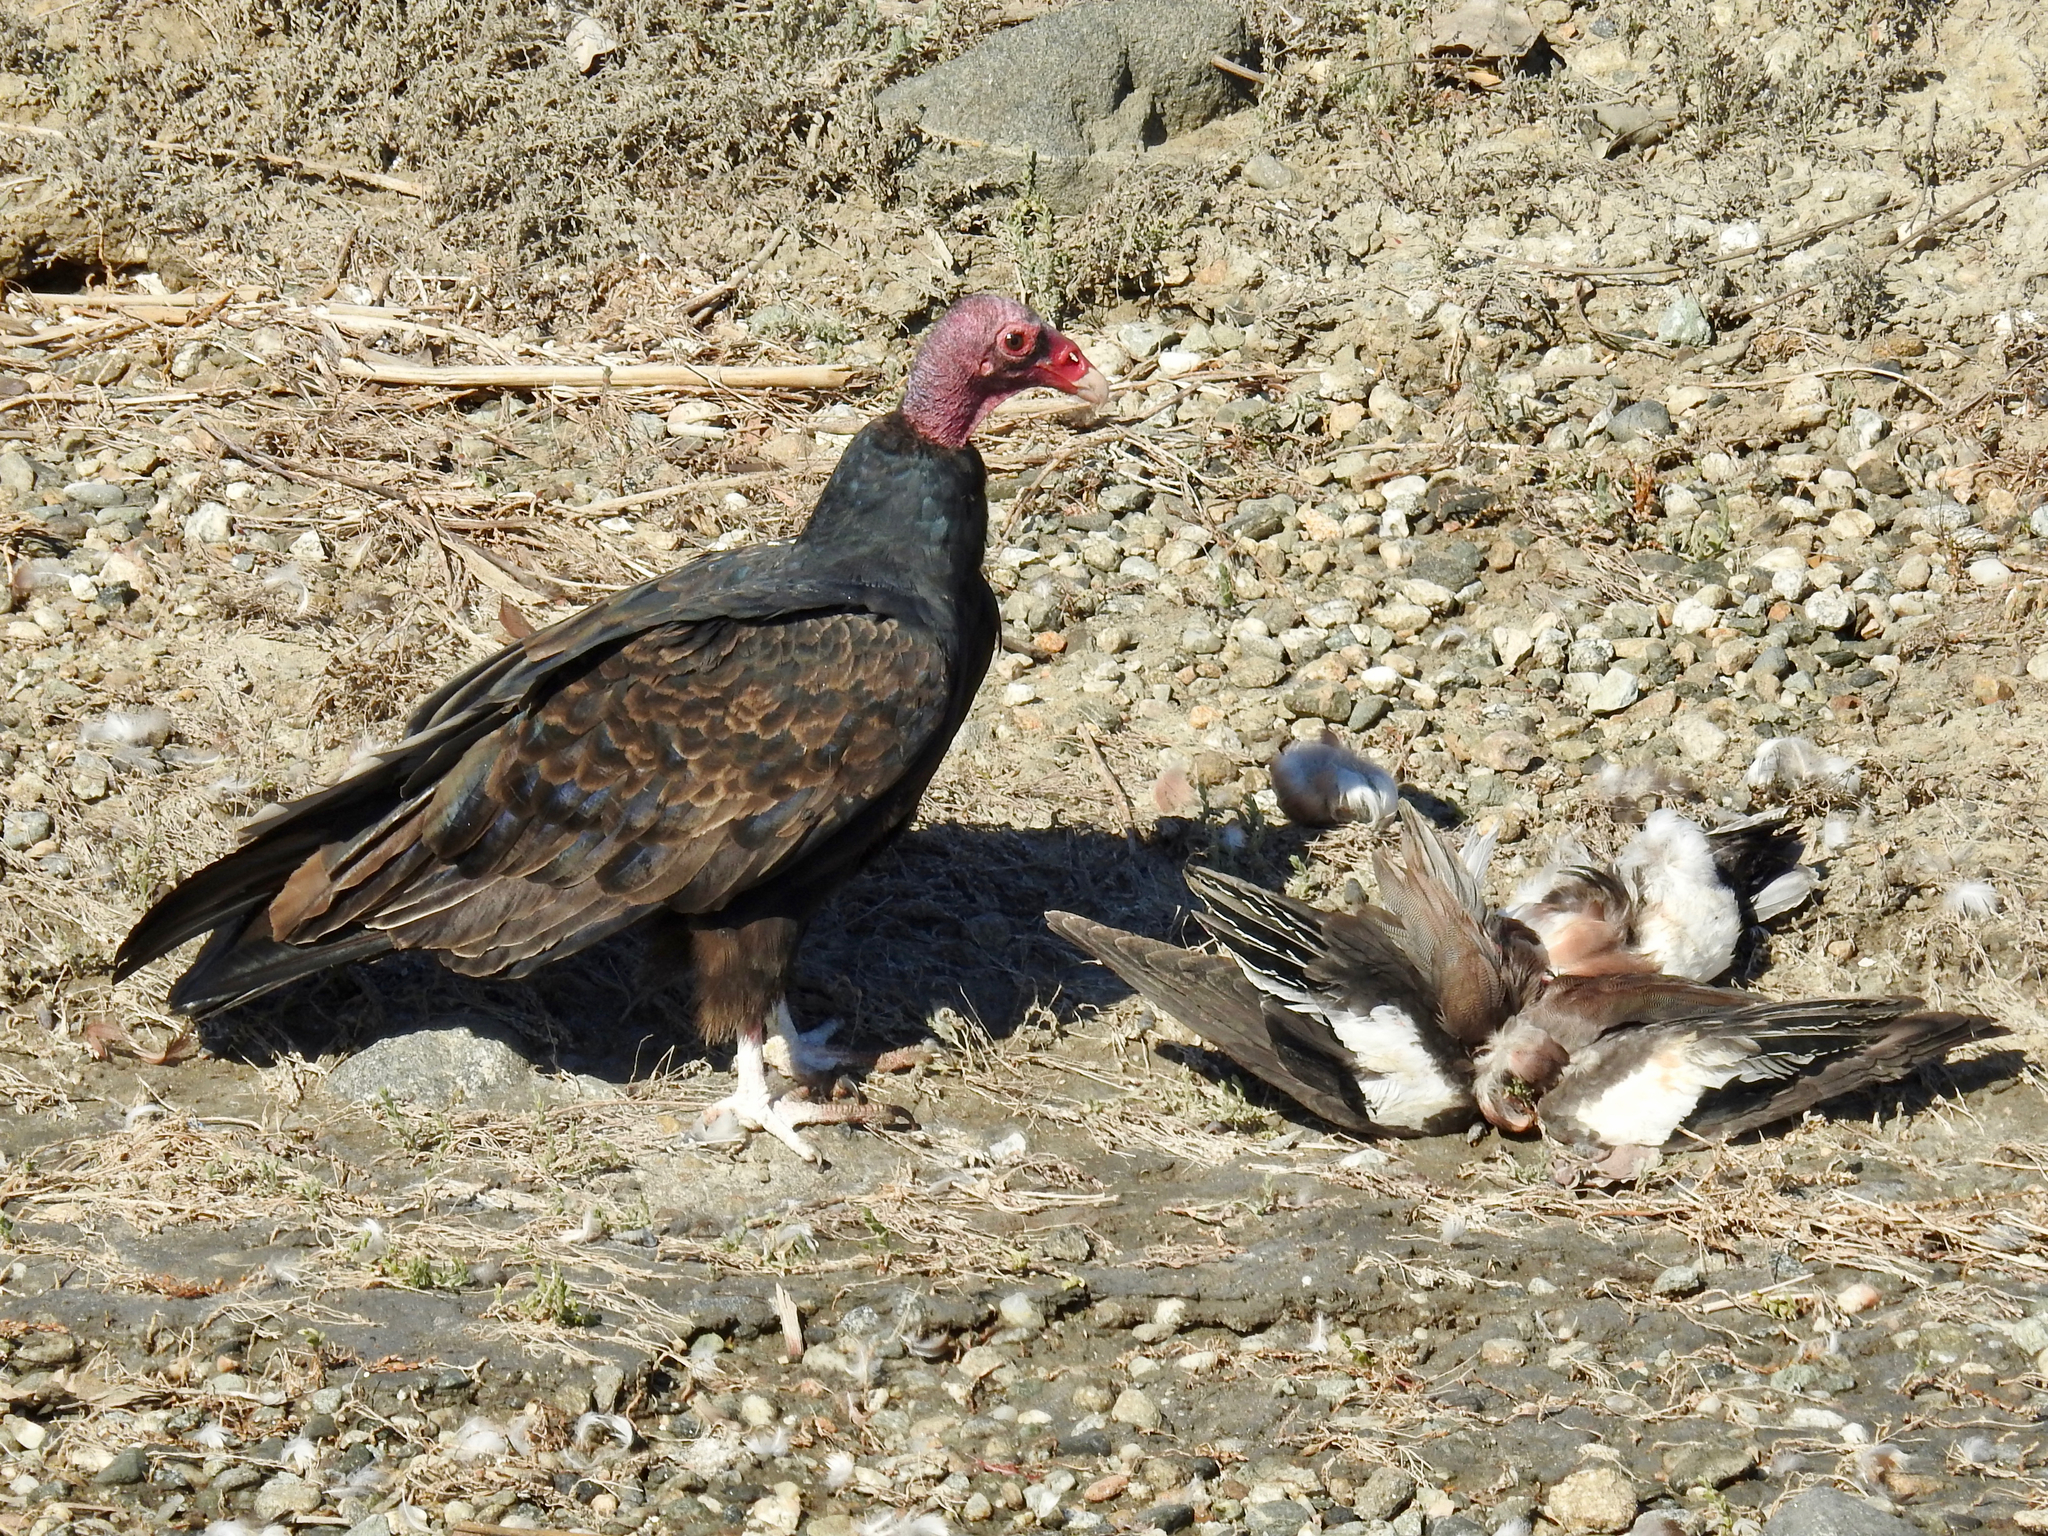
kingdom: Animalia
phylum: Chordata
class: Aves
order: Anseriformes
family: Anatidae
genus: Mareca
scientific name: Mareca americana
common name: American wigeon
